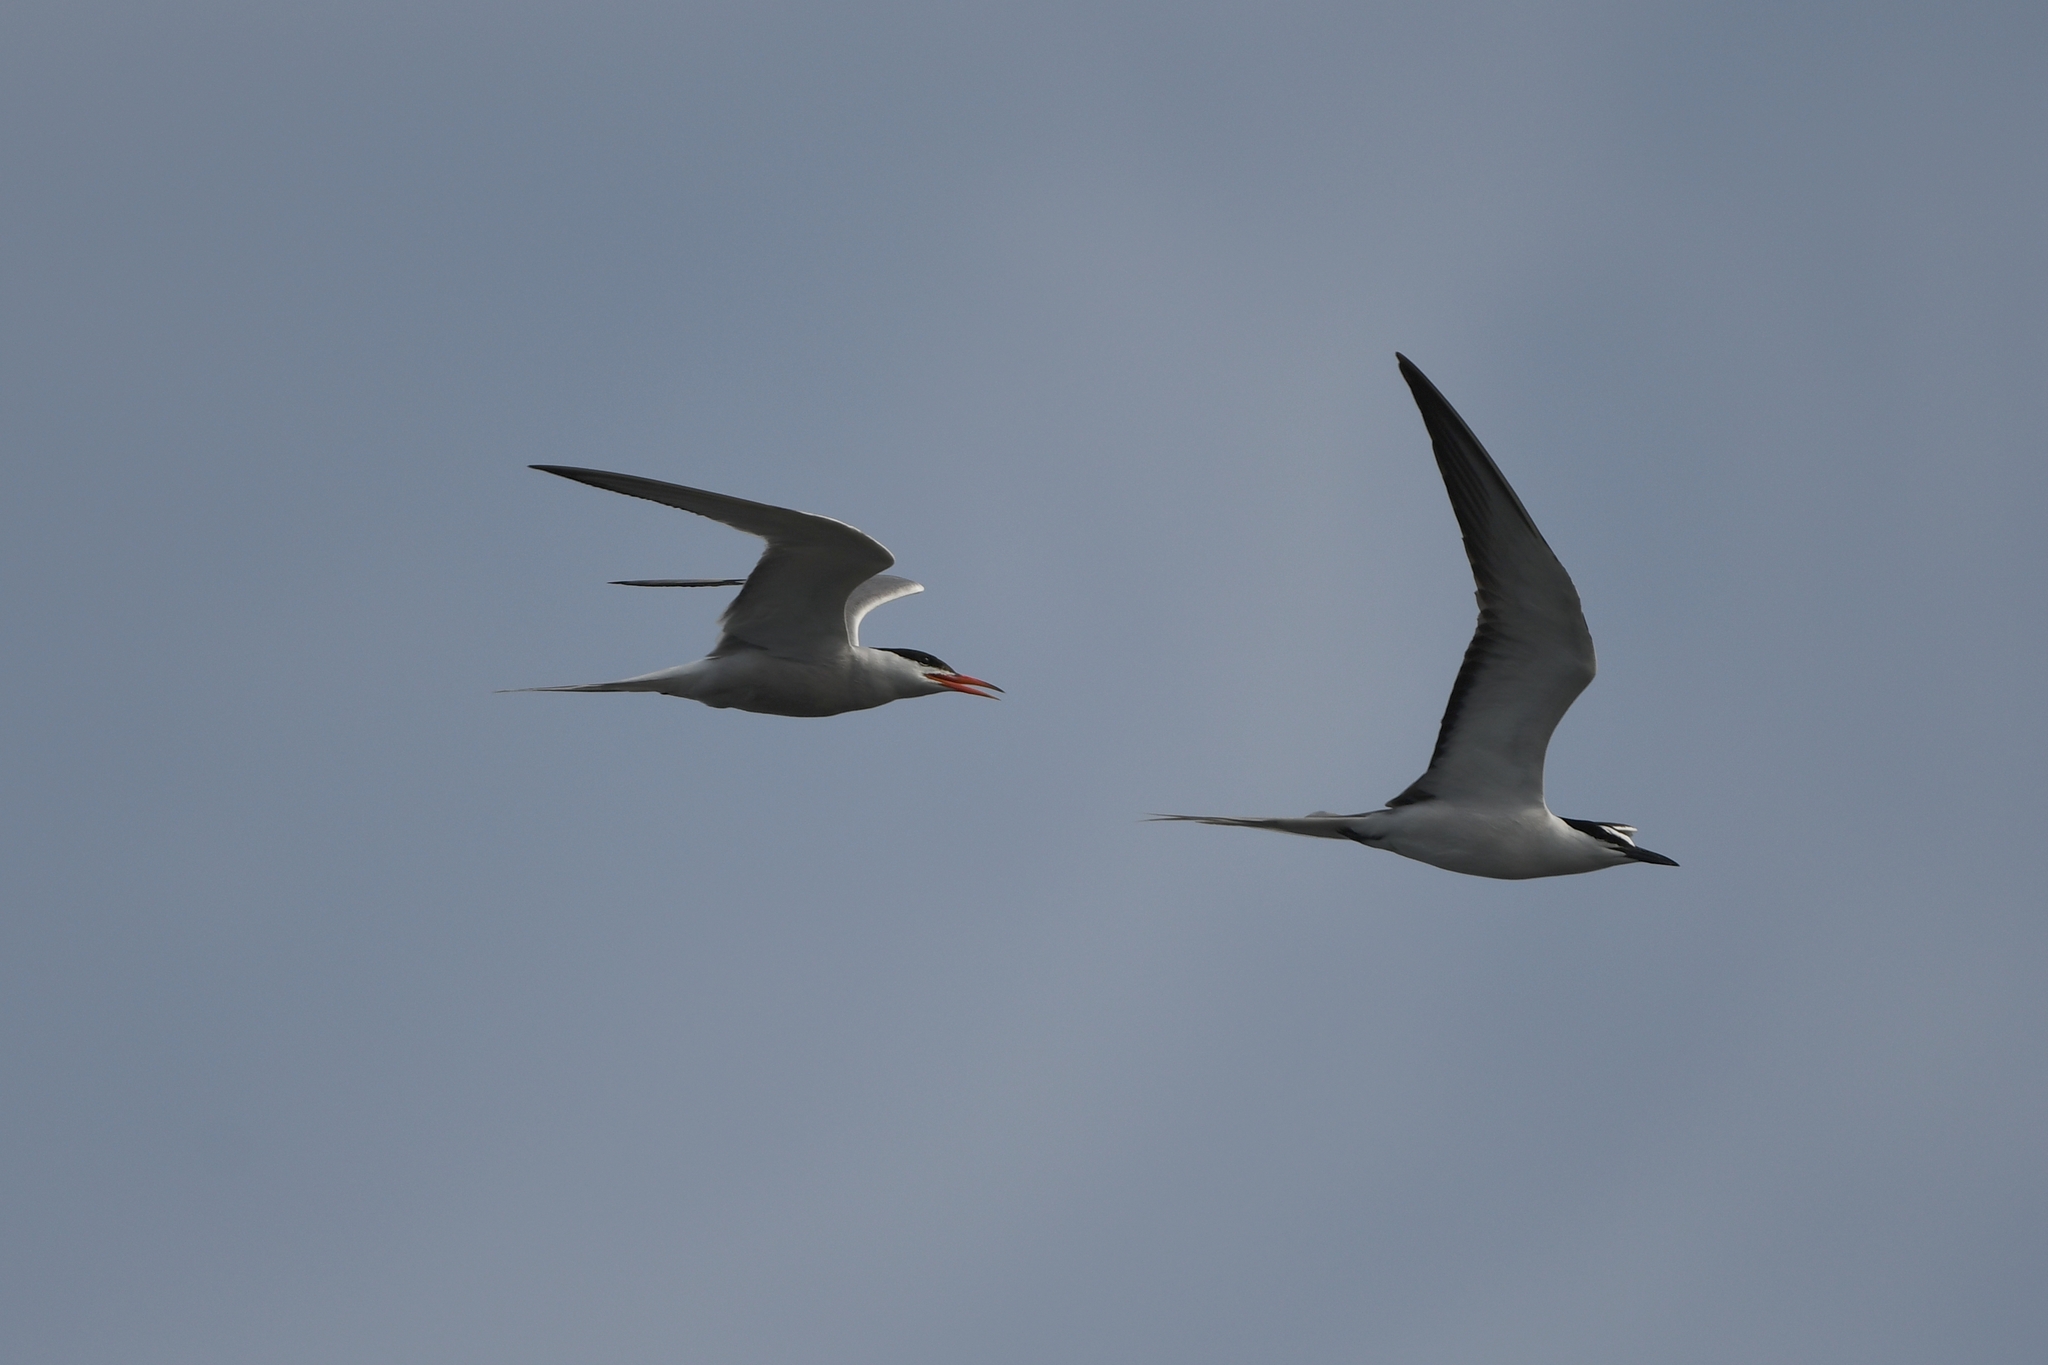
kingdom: Animalia
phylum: Chordata
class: Aves
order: Charadriiformes
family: Laridae
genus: Onychoprion
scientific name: Onychoprion anaethetus
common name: Bridled tern
